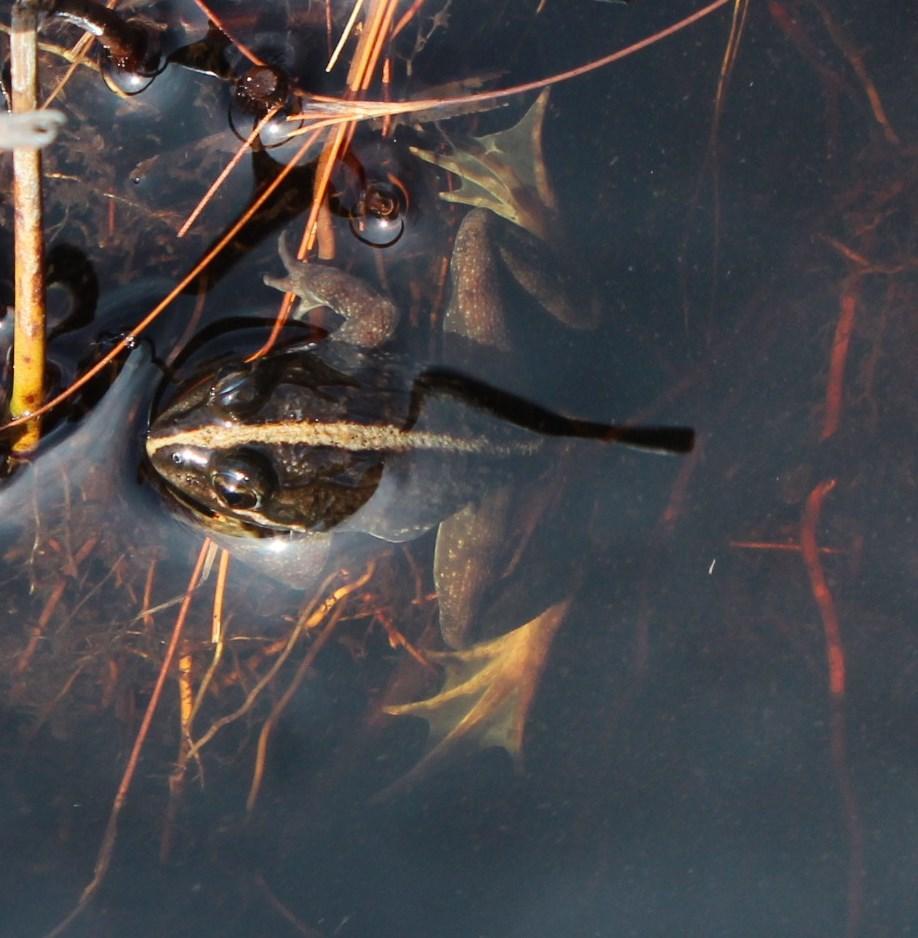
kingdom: Animalia
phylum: Chordata
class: Amphibia
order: Anura
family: Pyxicephalidae
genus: Amietia
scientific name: Amietia fuscigula
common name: Cape rana
